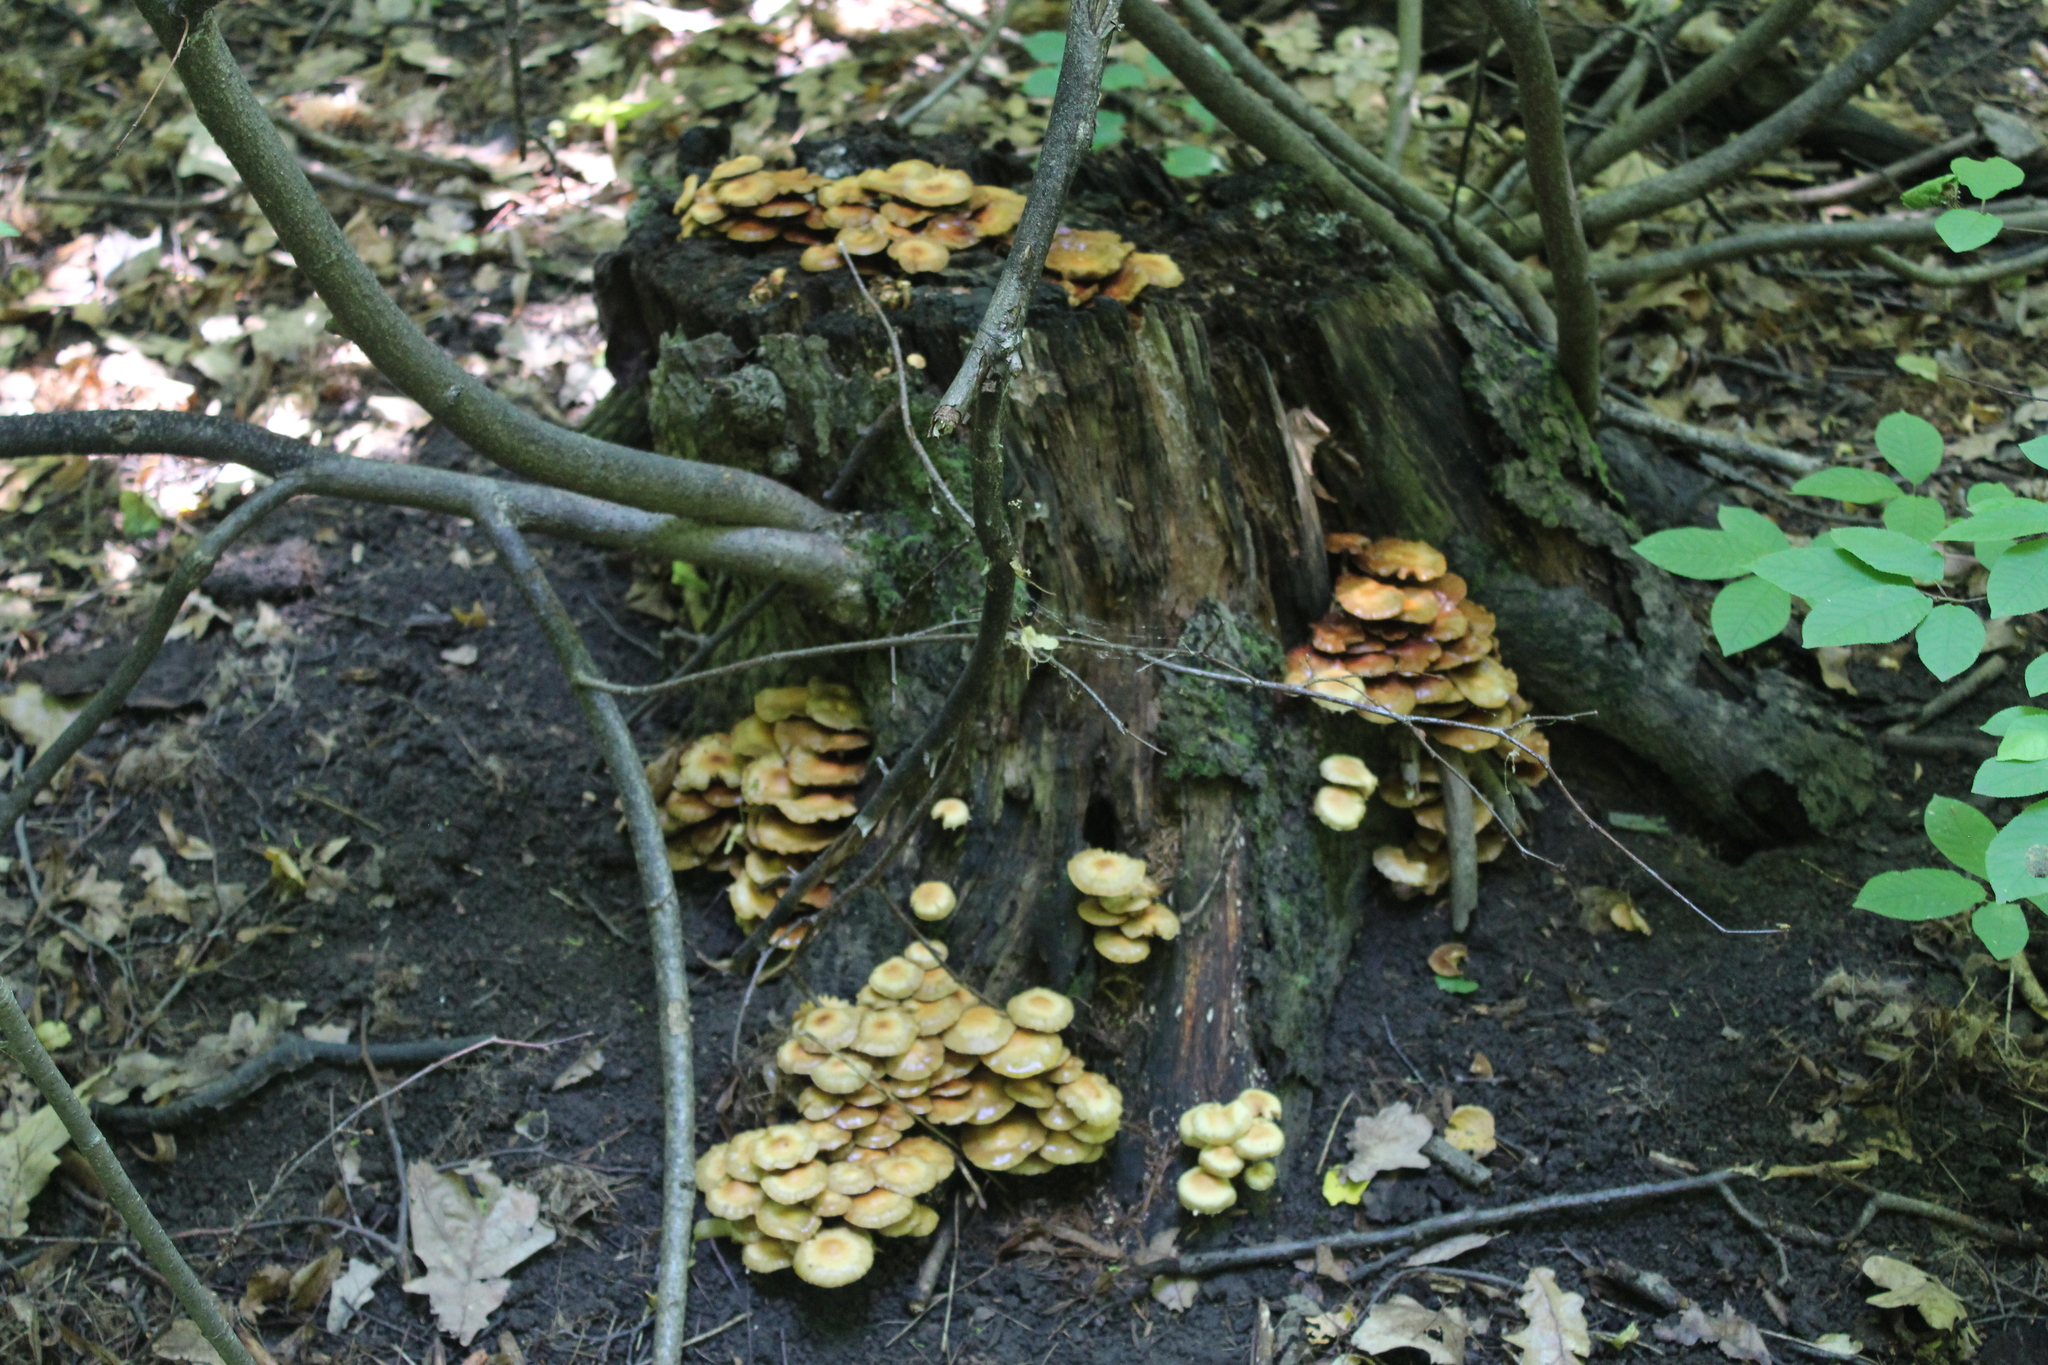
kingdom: Fungi
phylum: Basidiomycota
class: Agaricomycetes
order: Agaricales
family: Strophariaceae
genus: Kuehneromyces
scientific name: Kuehneromyces mutabilis
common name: Sheathed woodtuft
